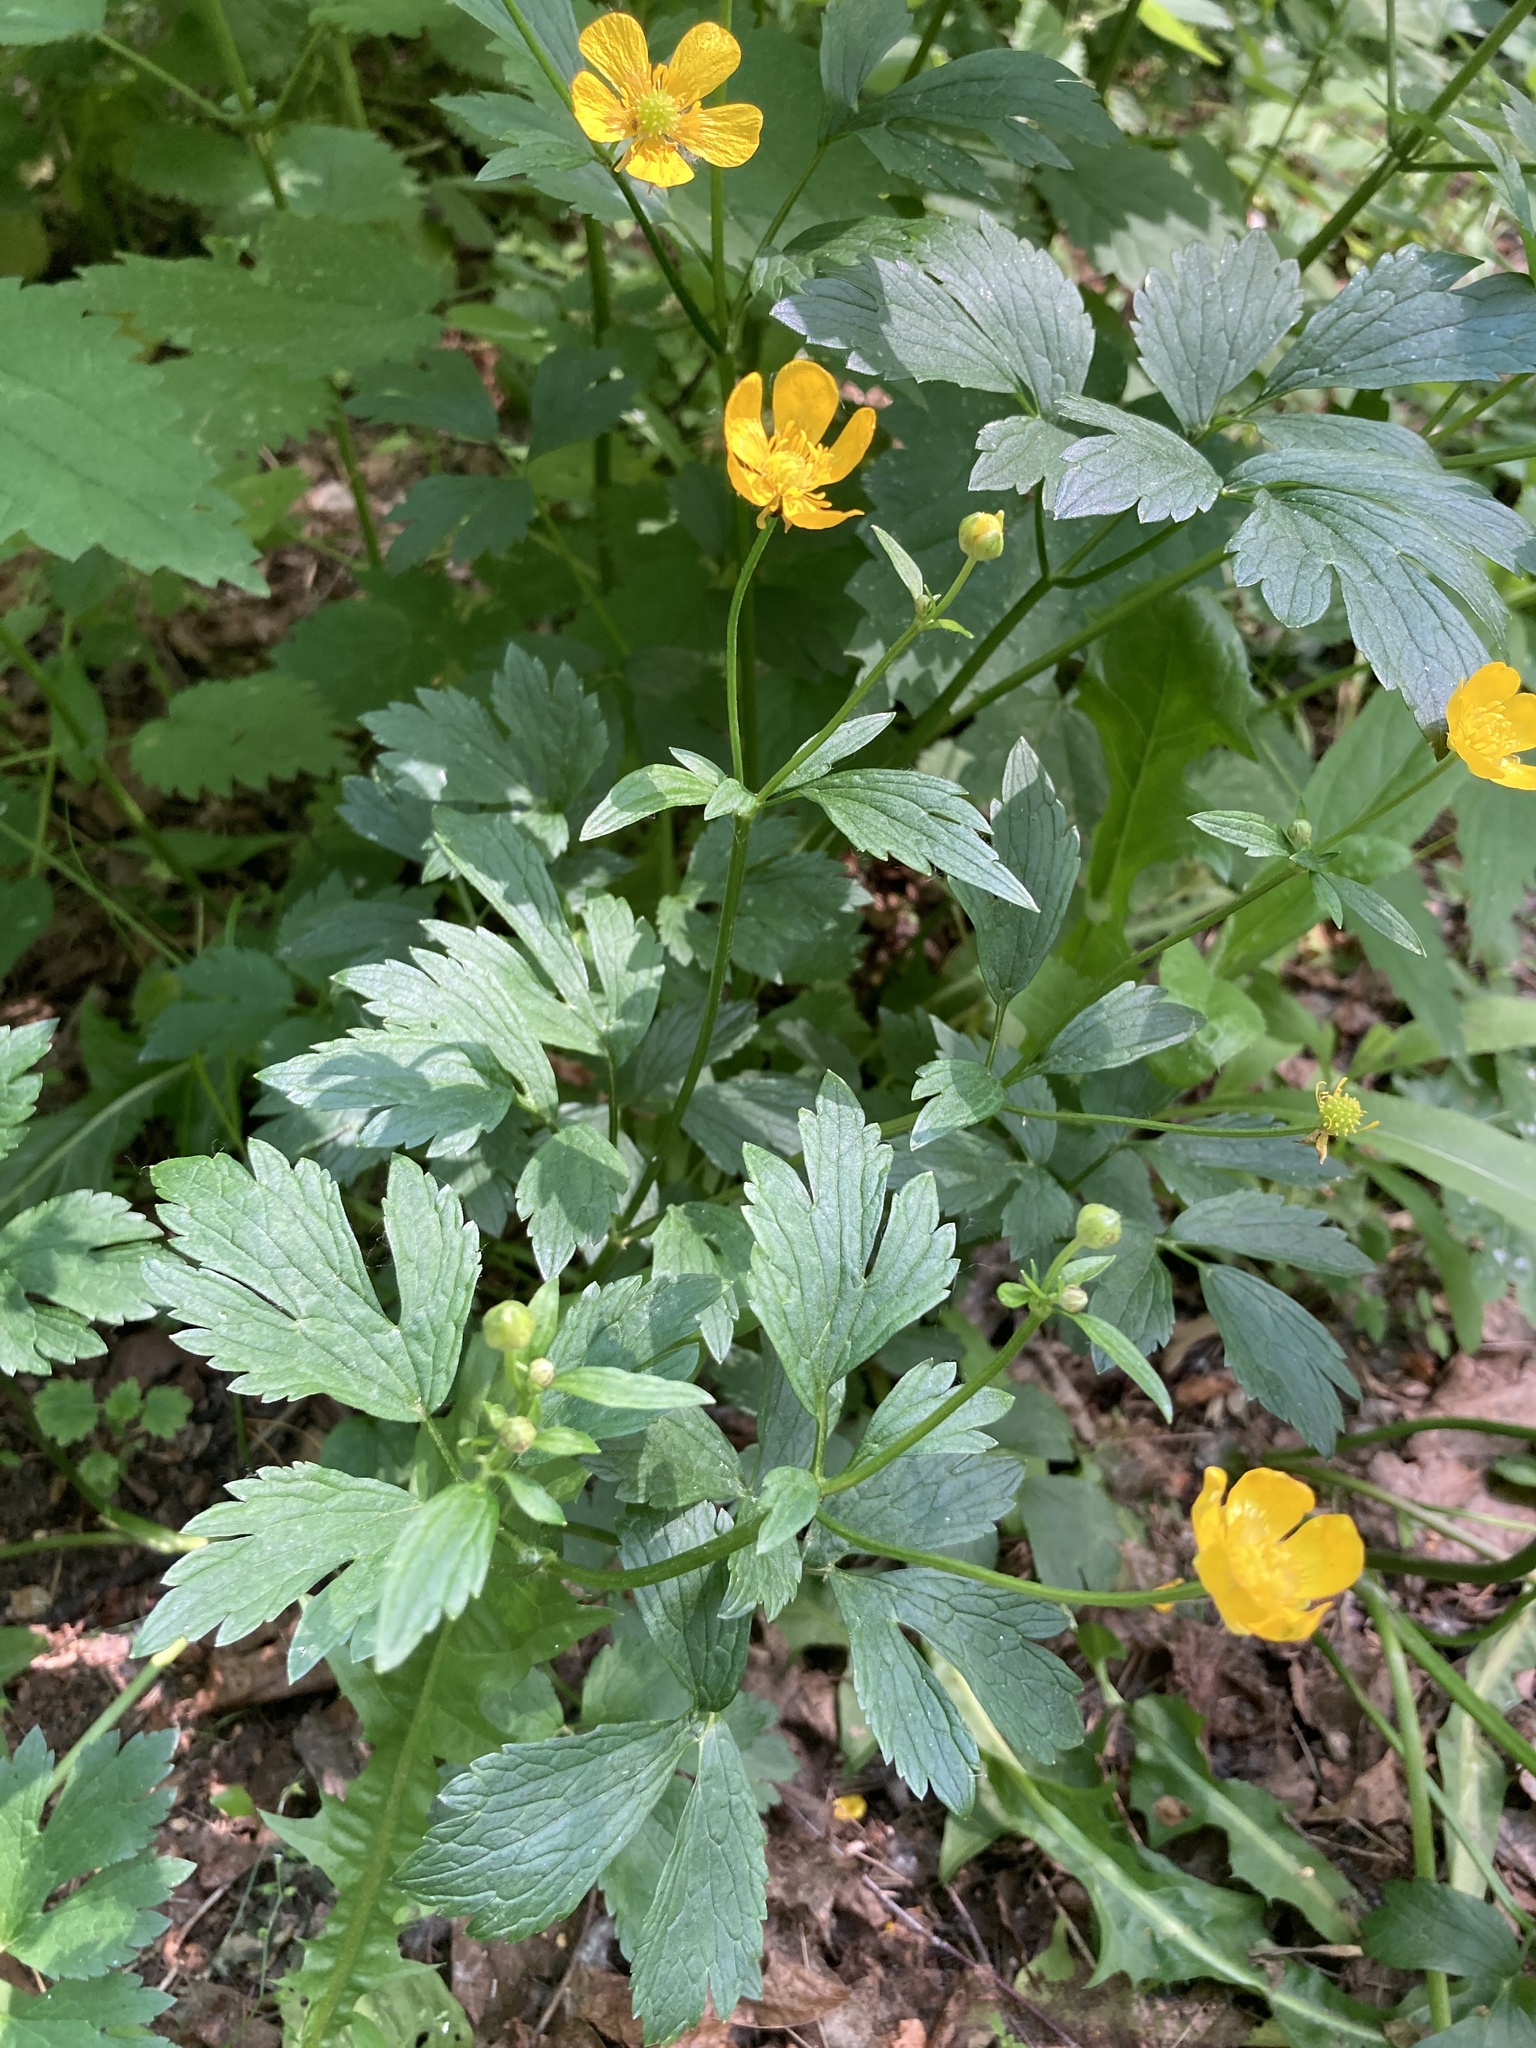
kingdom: Plantae
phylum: Tracheophyta
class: Magnoliopsida
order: Ranunculales
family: Ranunculaceae
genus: Ranunculus
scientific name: Ranunculus repens
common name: Creeping buttercup
